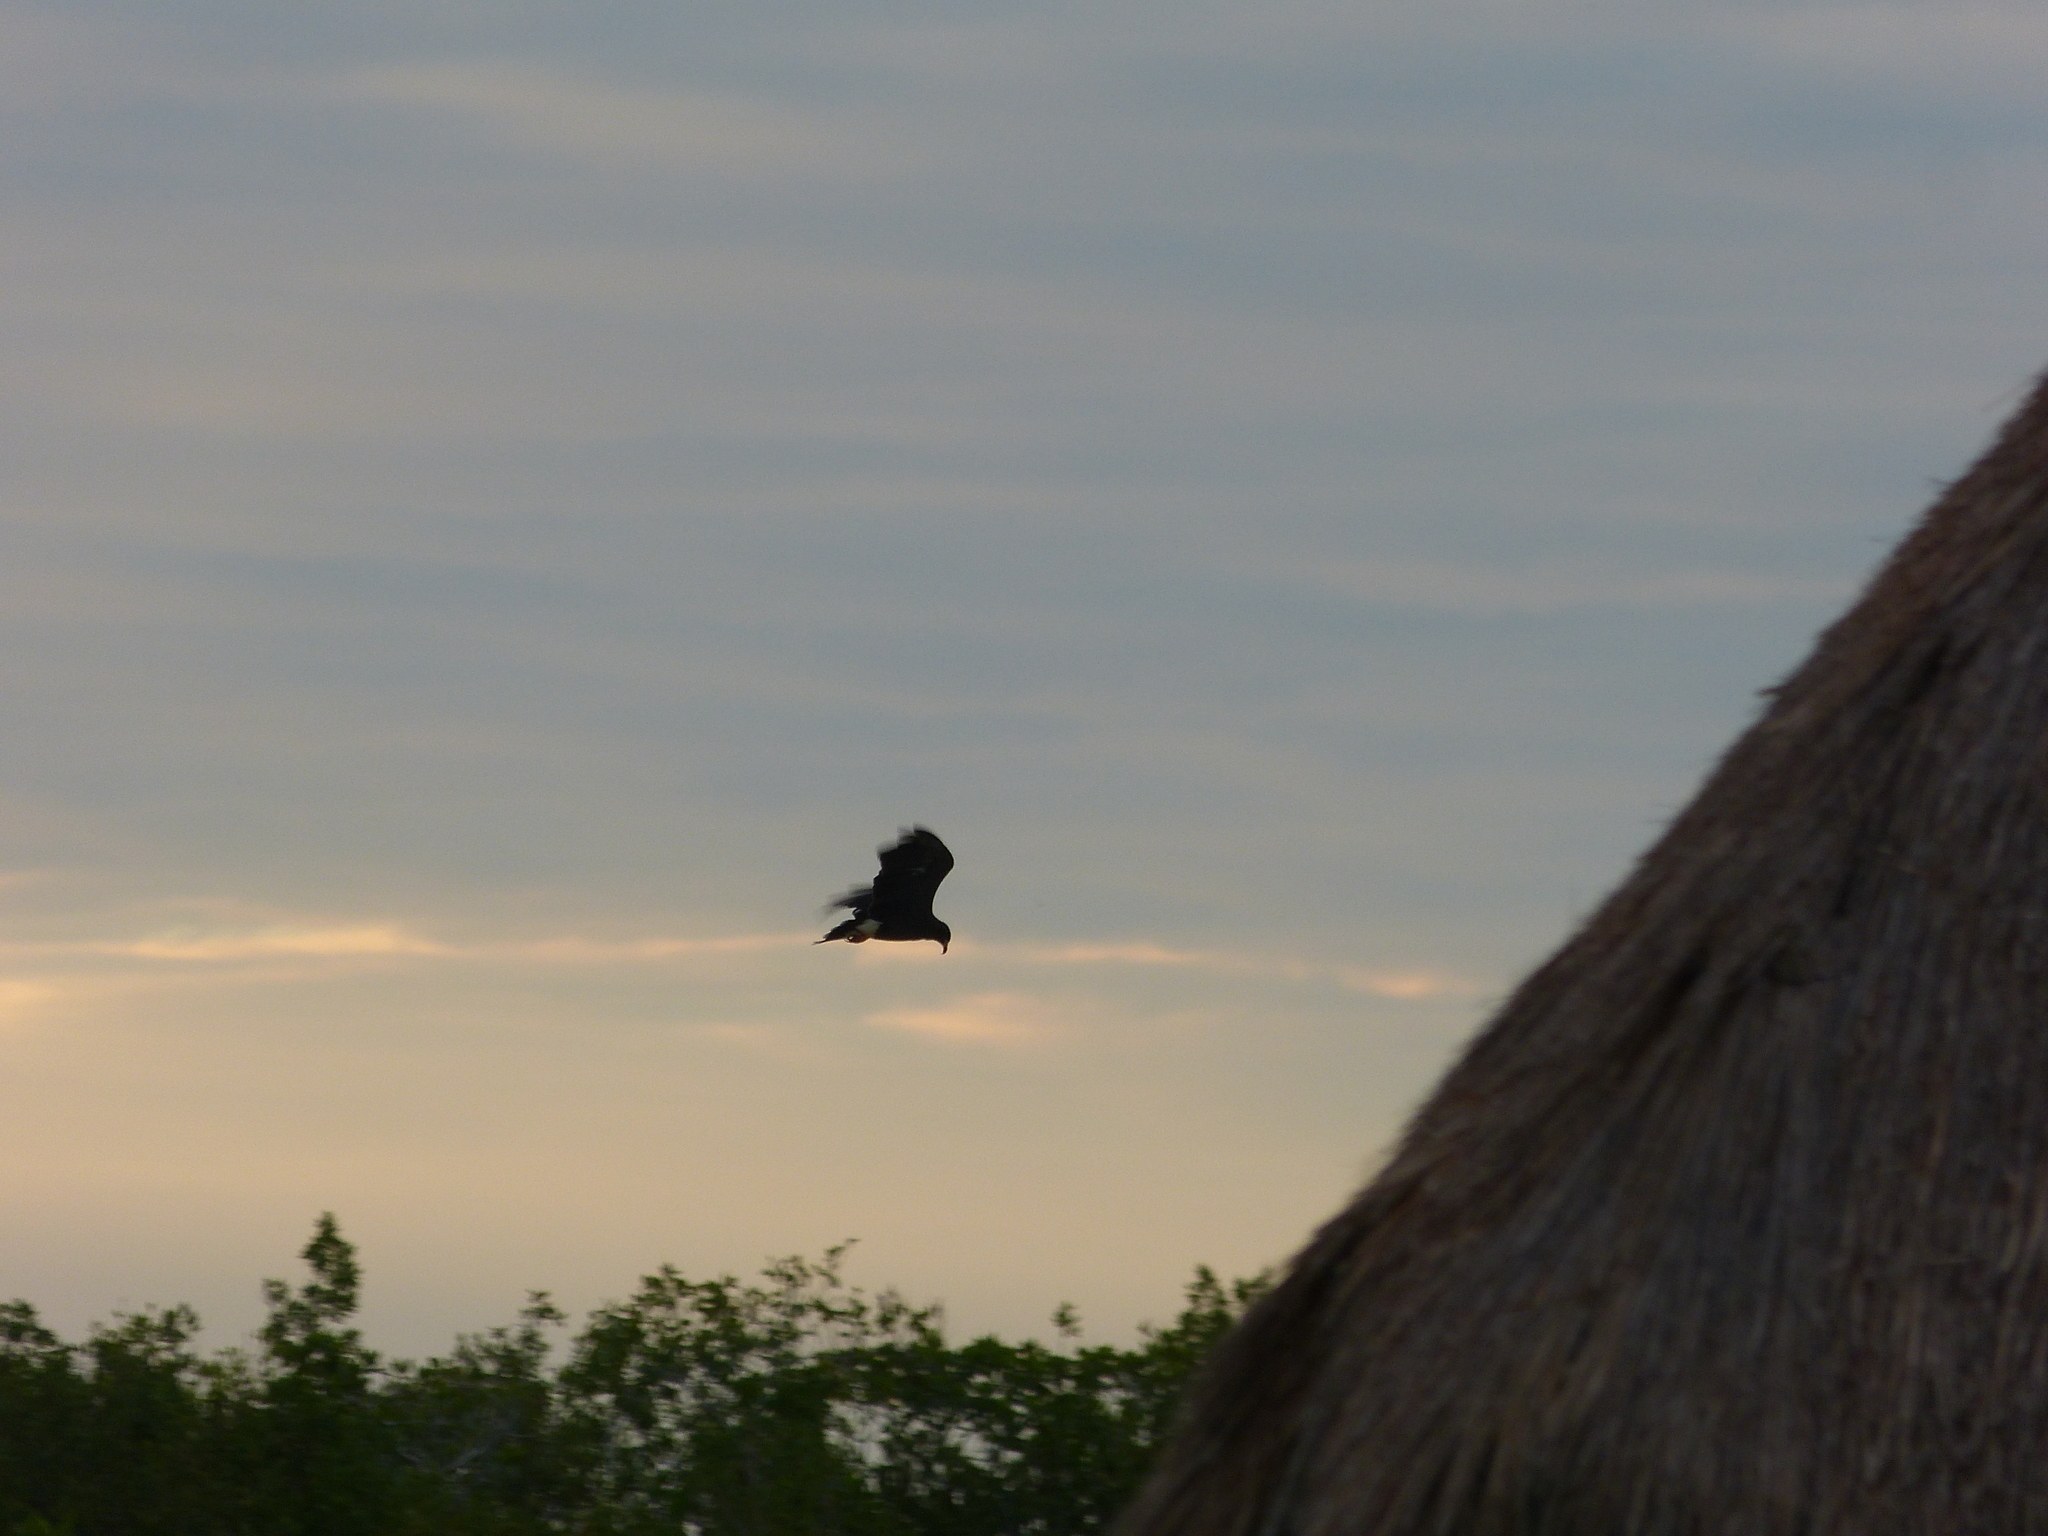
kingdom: Animalia
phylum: Chordata
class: Aves
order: Accipitriformes
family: Accipitridae
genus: Rostrhamus
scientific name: Rostrhamus sociabilis
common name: Snail kite
